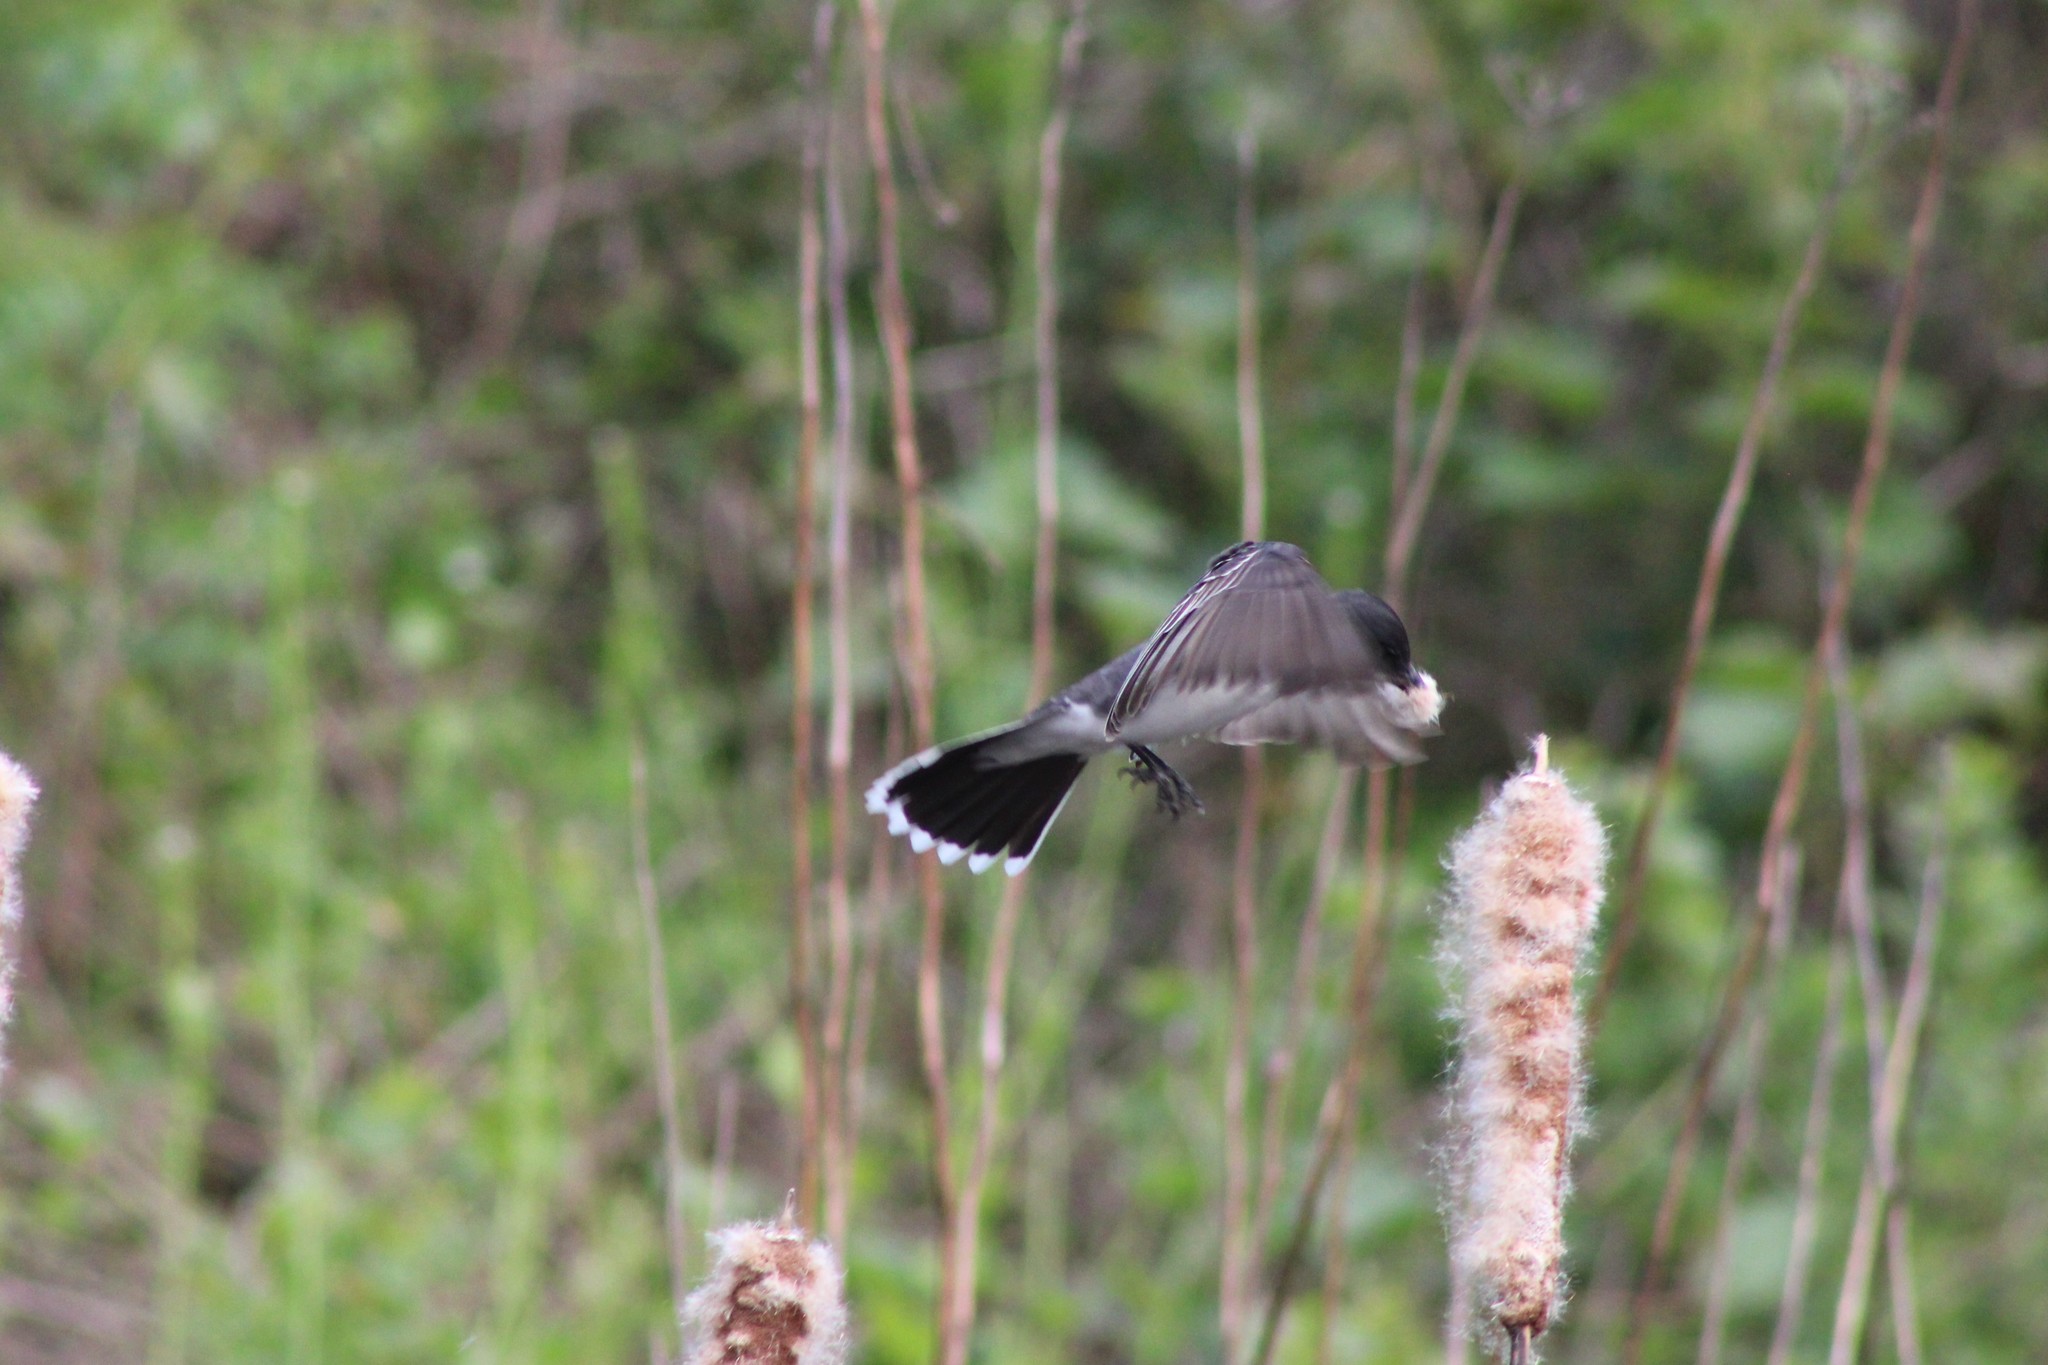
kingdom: Animalia
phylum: Chordata
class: Aves
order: Passeriformes
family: Tyrannidae
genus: Tyrannus
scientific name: Tyrannus tyrannus
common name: Eastern kingbird
